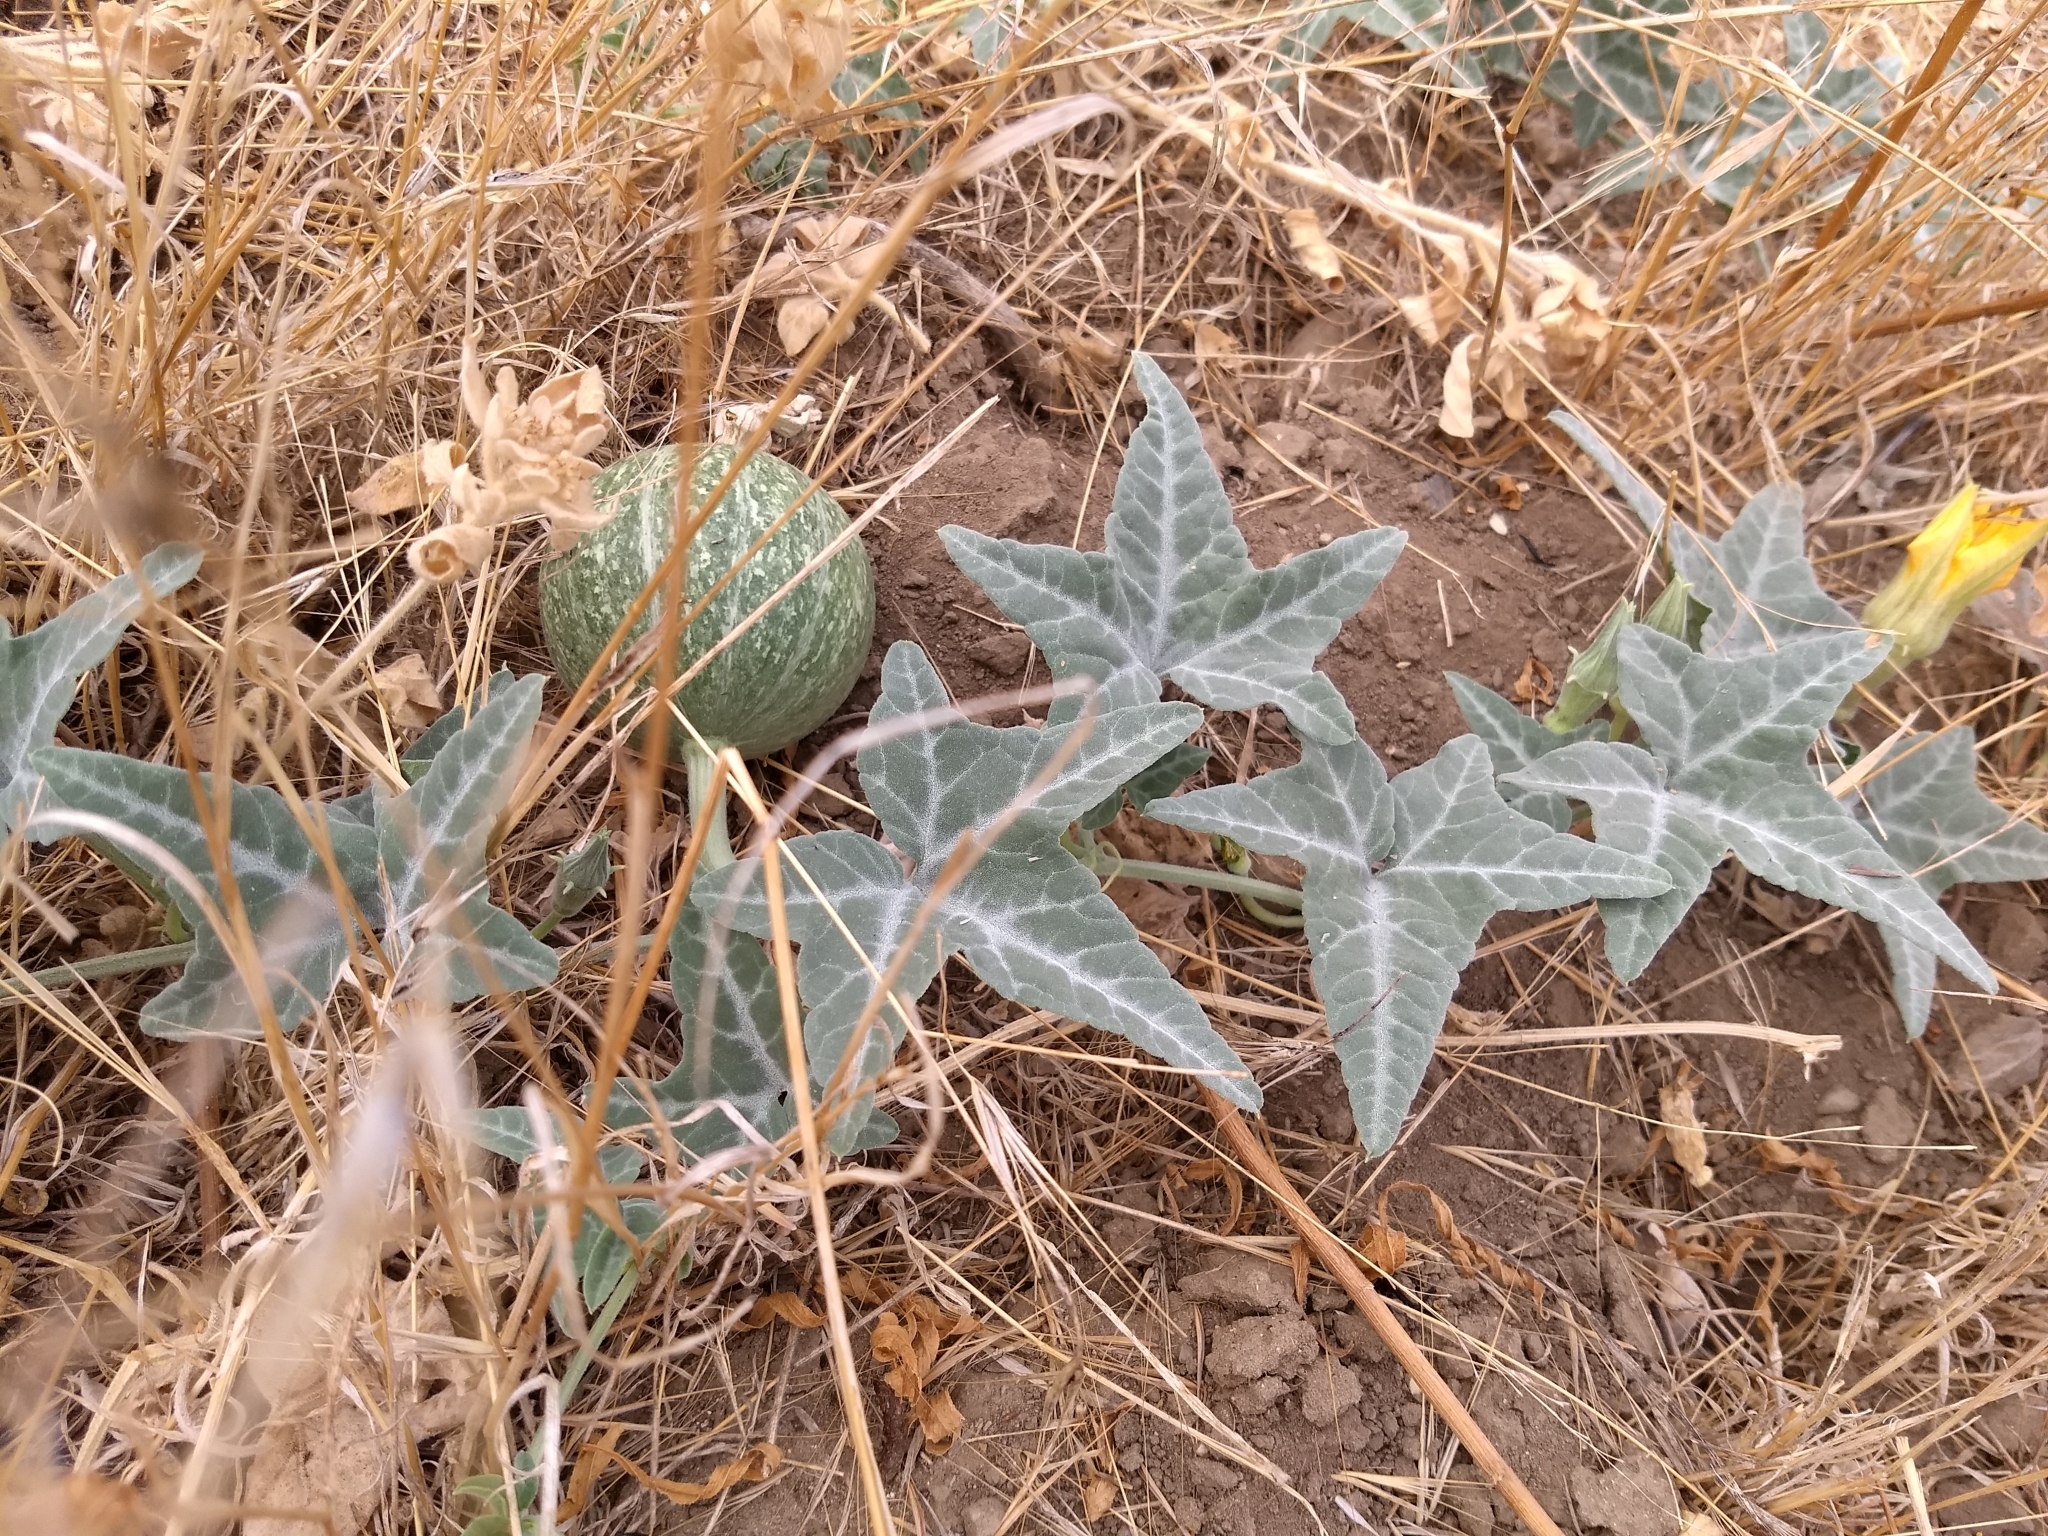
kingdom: Plantae
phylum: Tracheophyta
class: Magnoliopsida
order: Cucurbitales
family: Cucurbitaceae
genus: Cucurbita
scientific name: Cucurbita palmata
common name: Coyote-melon
